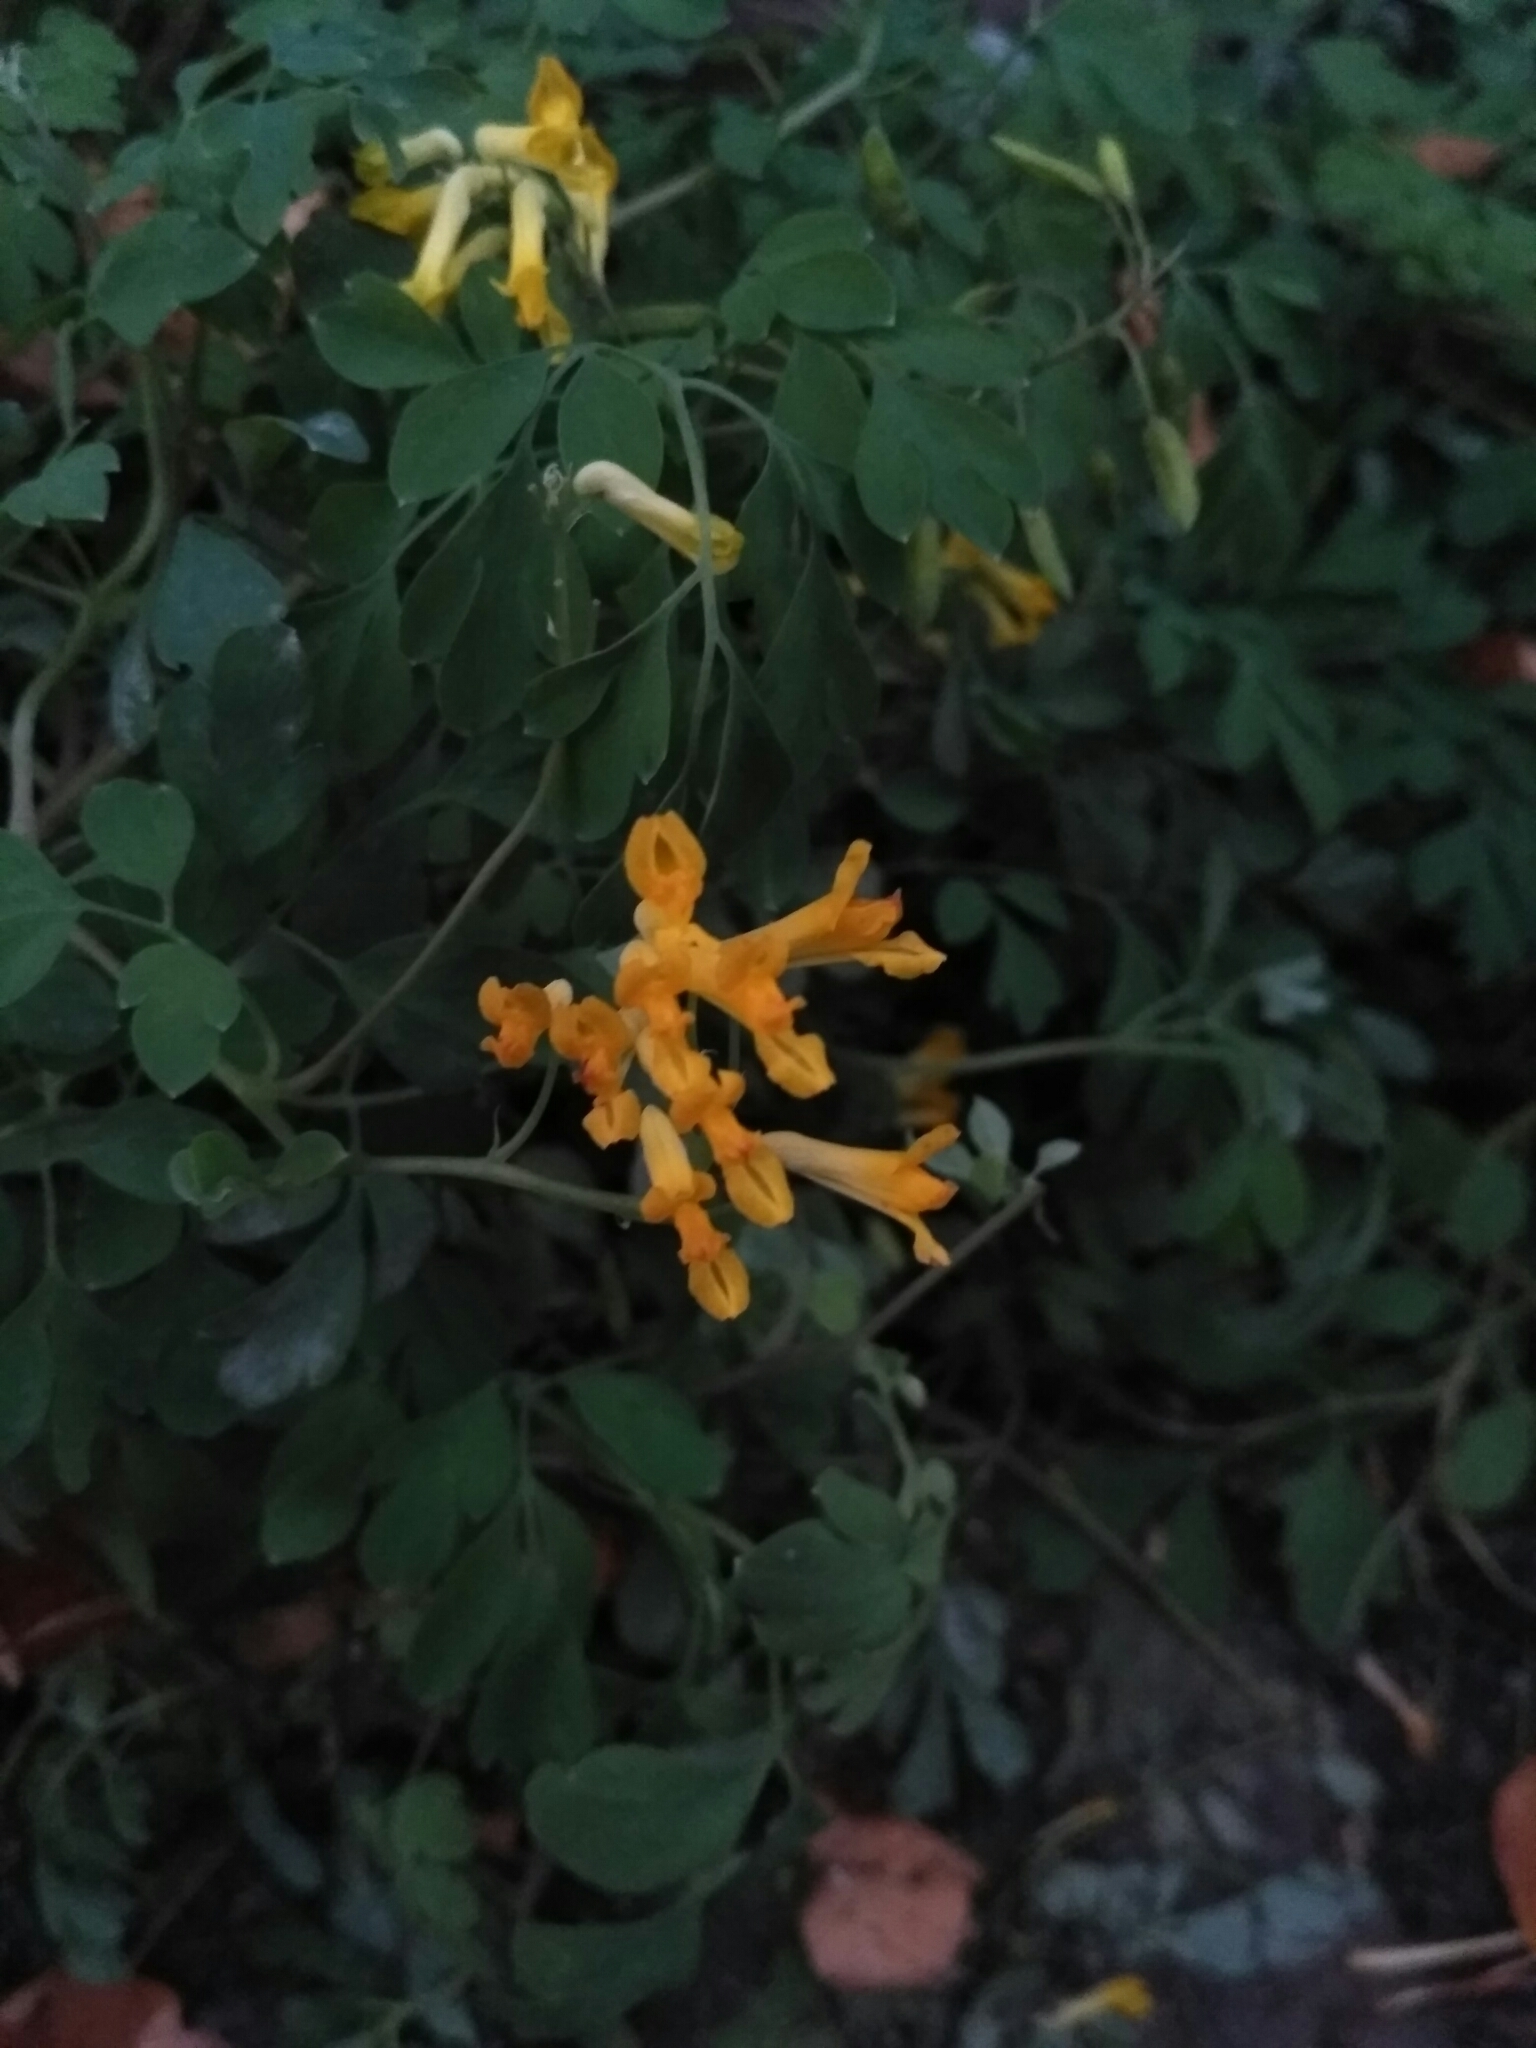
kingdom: Plantae
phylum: Tracheophyta
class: Magnoliopsida
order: Ranunculales
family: Papaveraceae
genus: Pseudofumaria
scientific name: Pseudofumaria lutea
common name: Yellow corydalis
